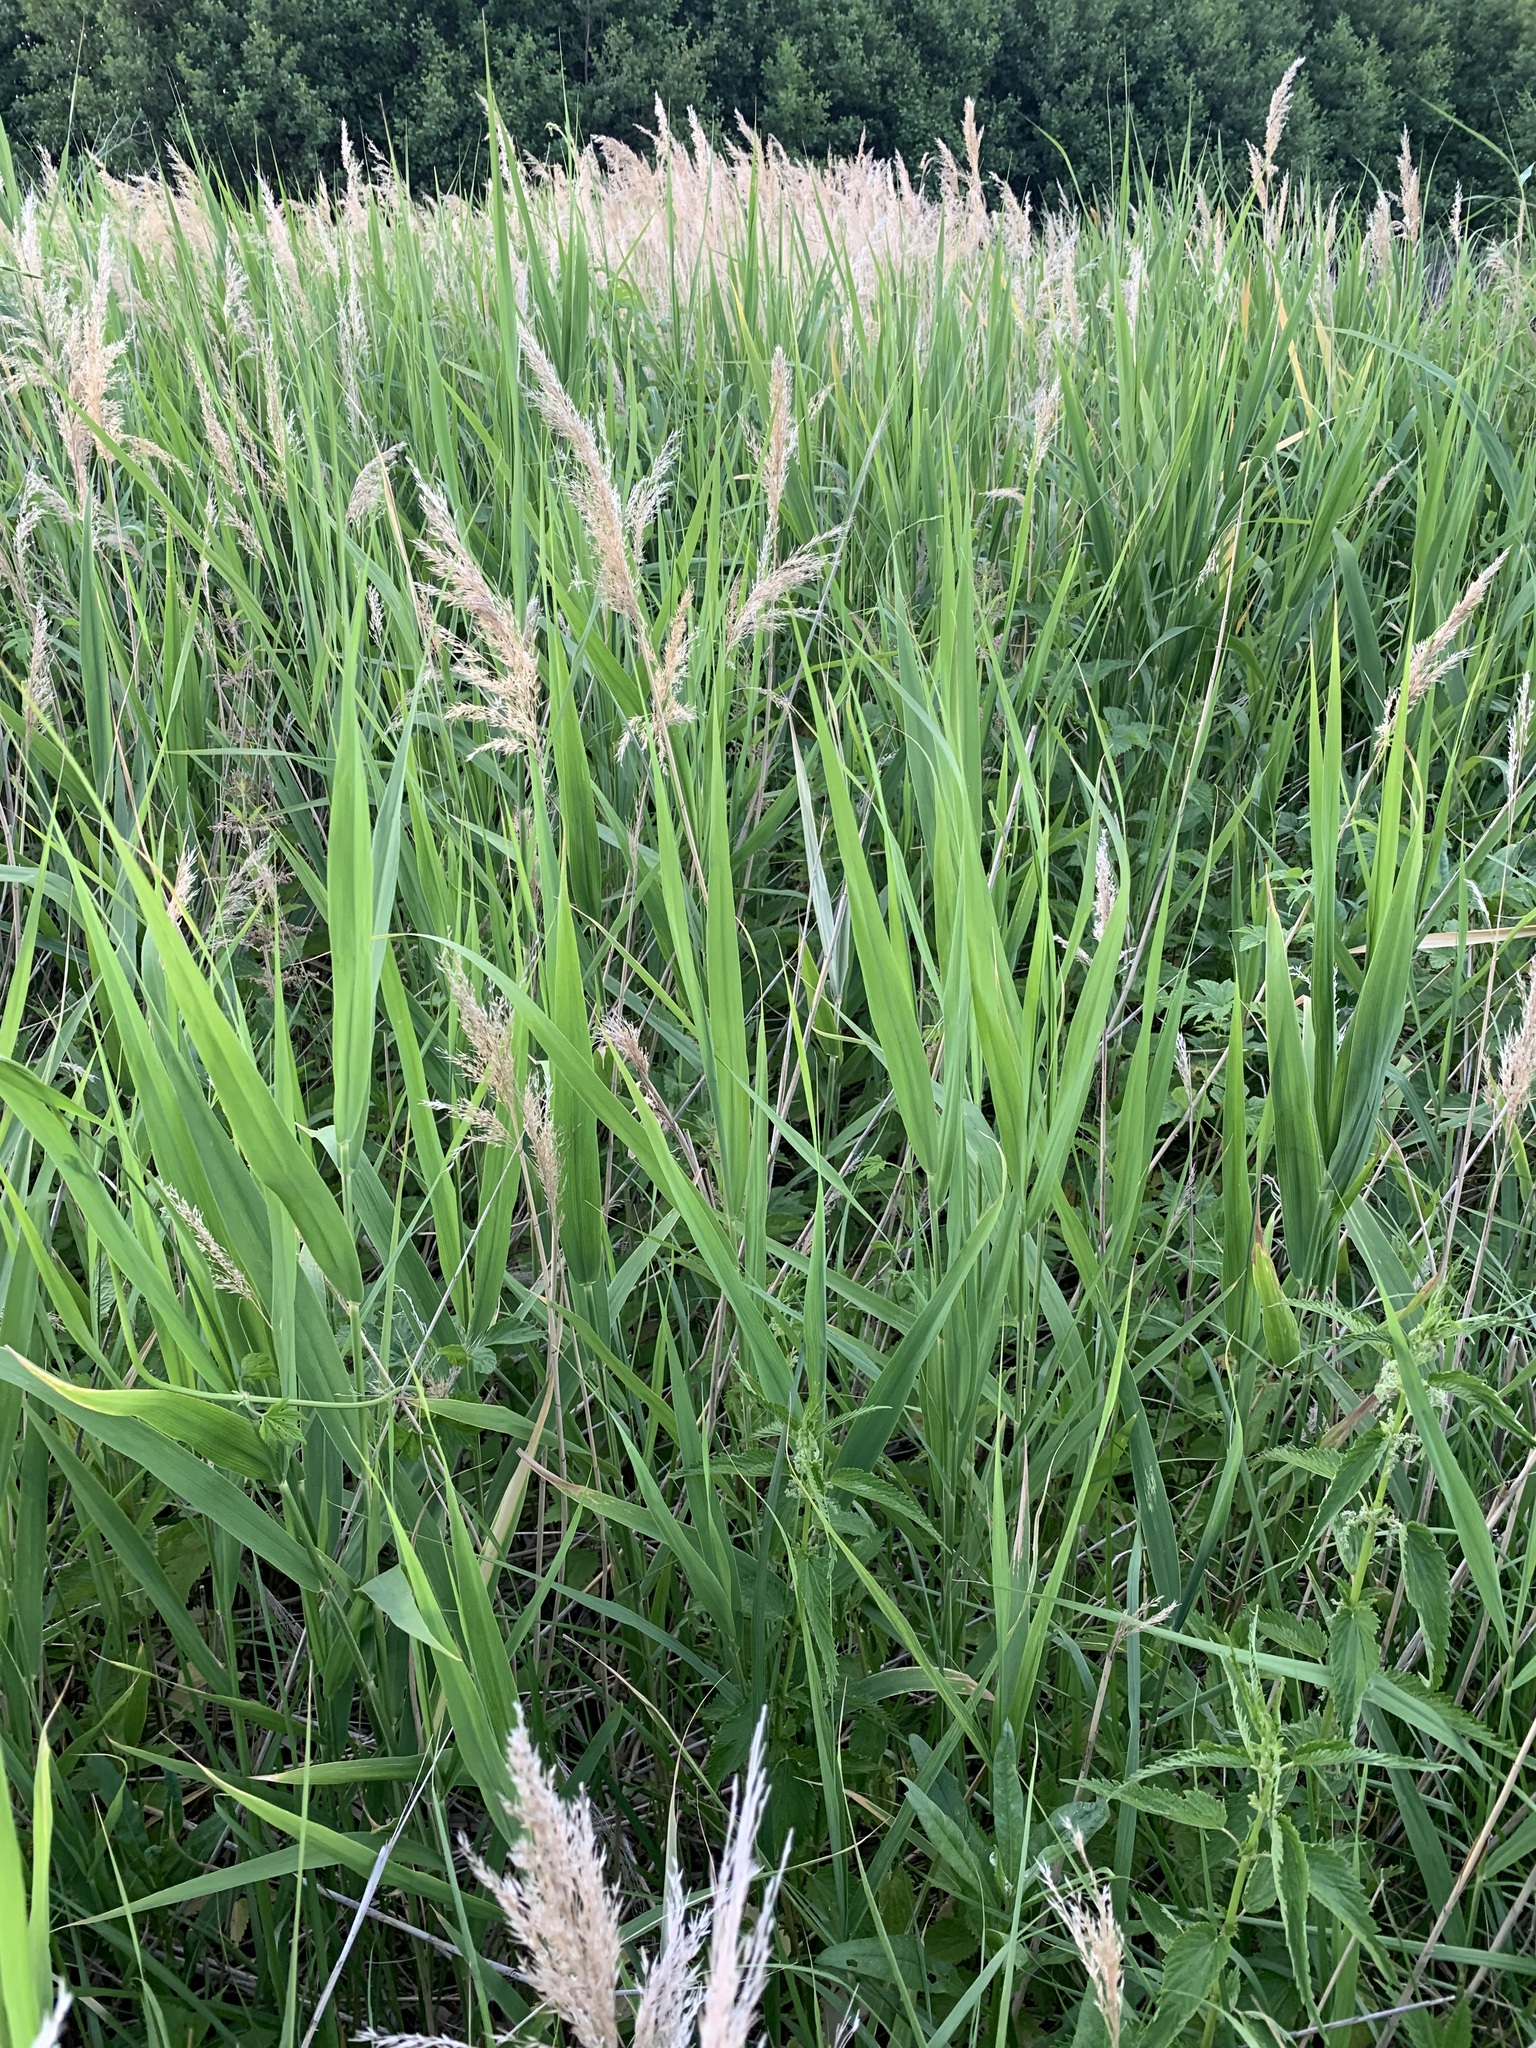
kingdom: Plantae
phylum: Tracheophyta
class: Liliopsida
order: Poales
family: Poaceae
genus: Phragmites
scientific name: Phragmites australis
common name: Common reed
